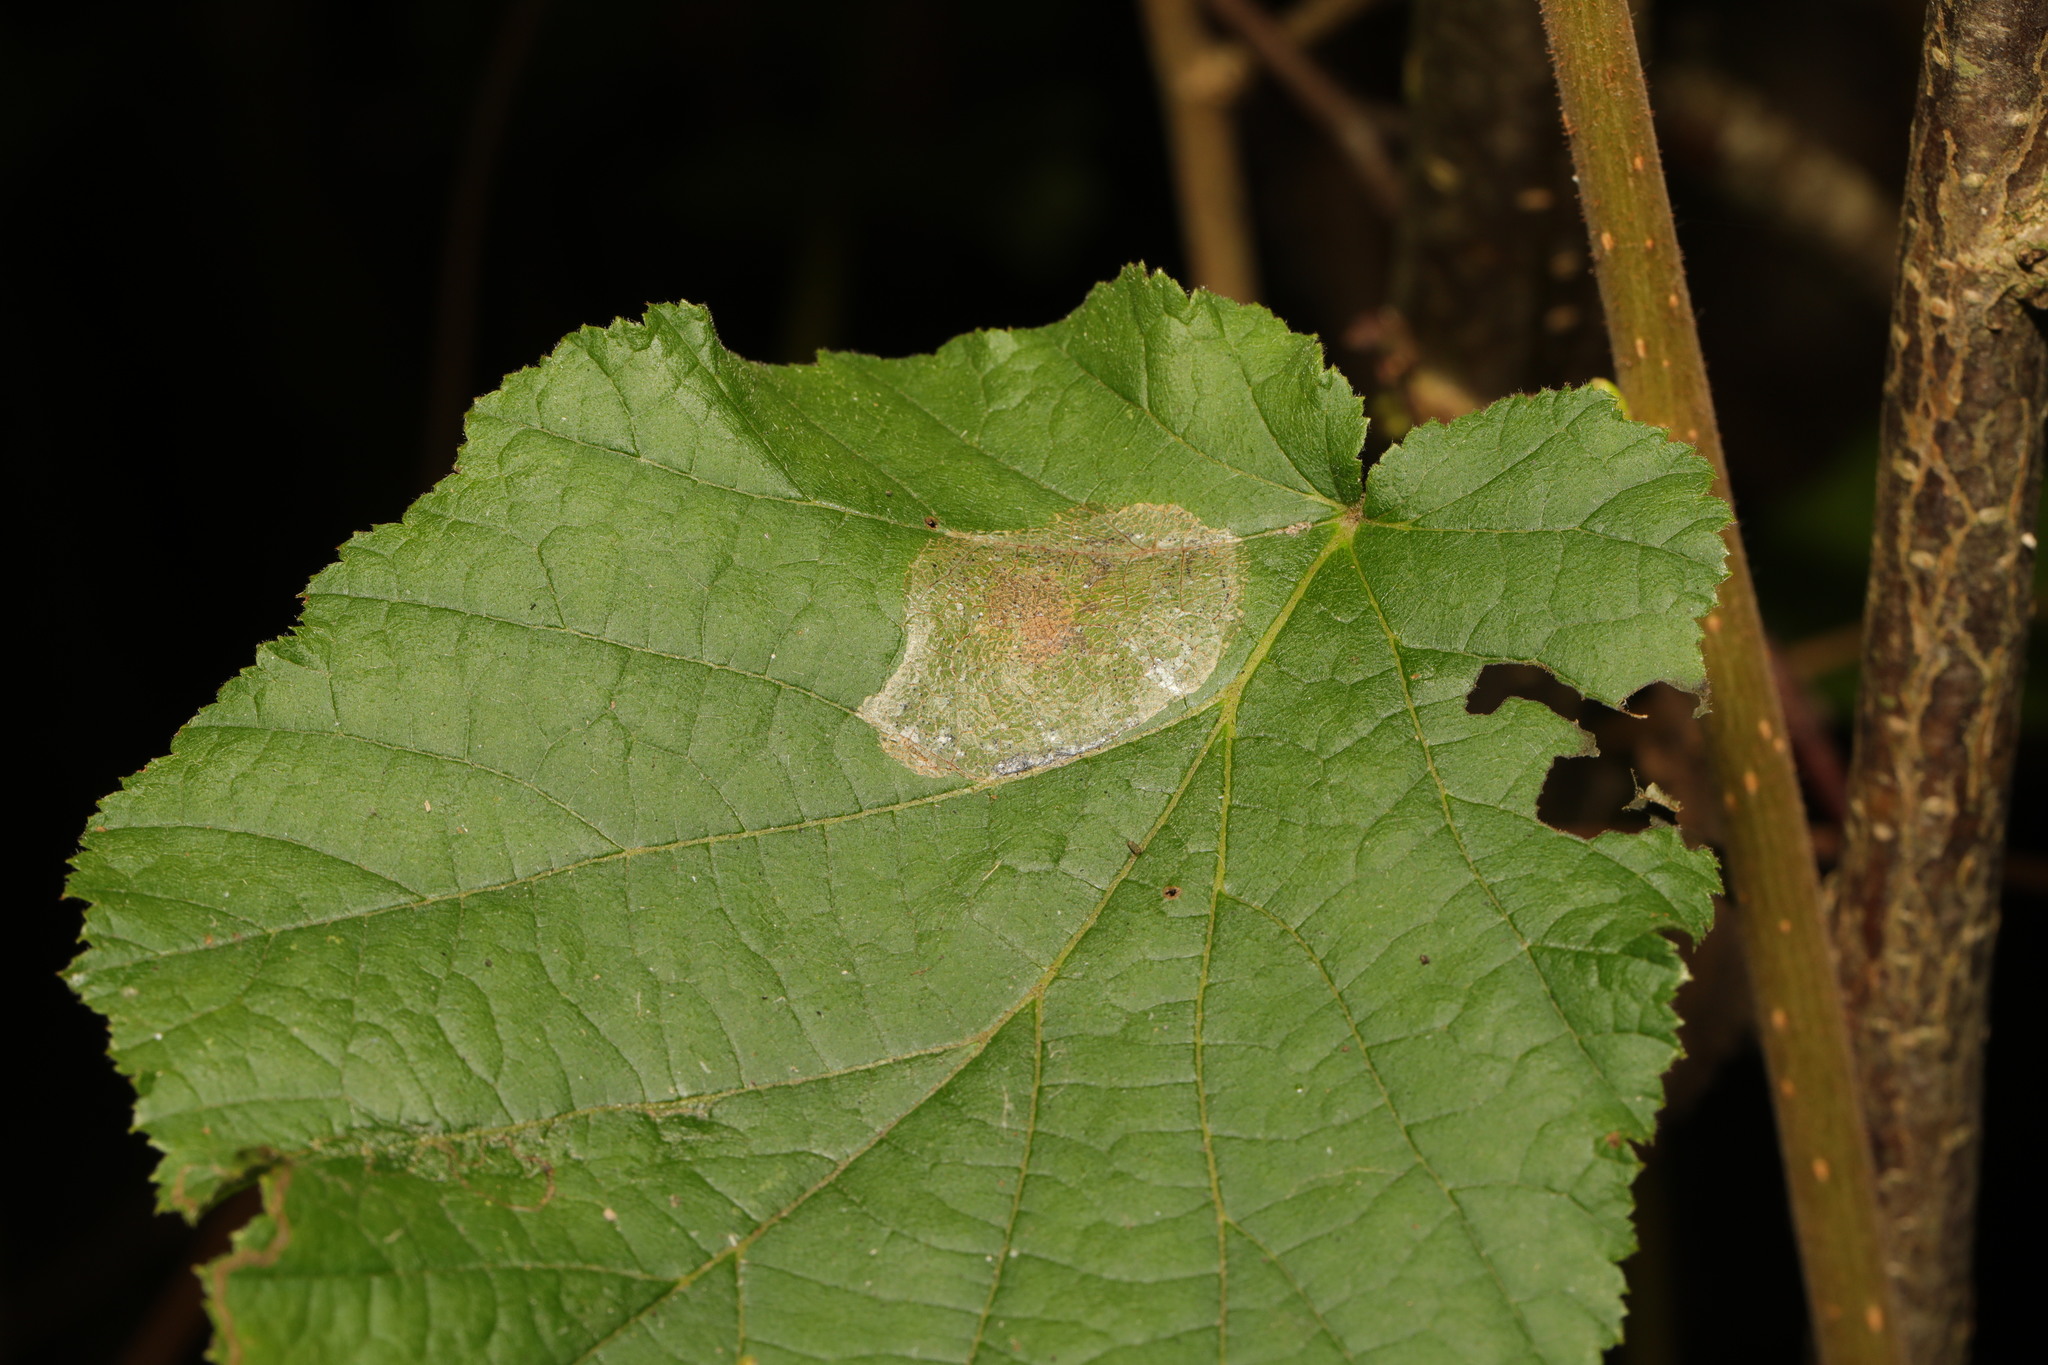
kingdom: Animalia
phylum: Arthropoda
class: Insecta
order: Lepidoptera
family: Gracillariidae
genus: Phyllonorycter
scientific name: Phyllonorycter coryli
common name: Nut-leaf blister moth
